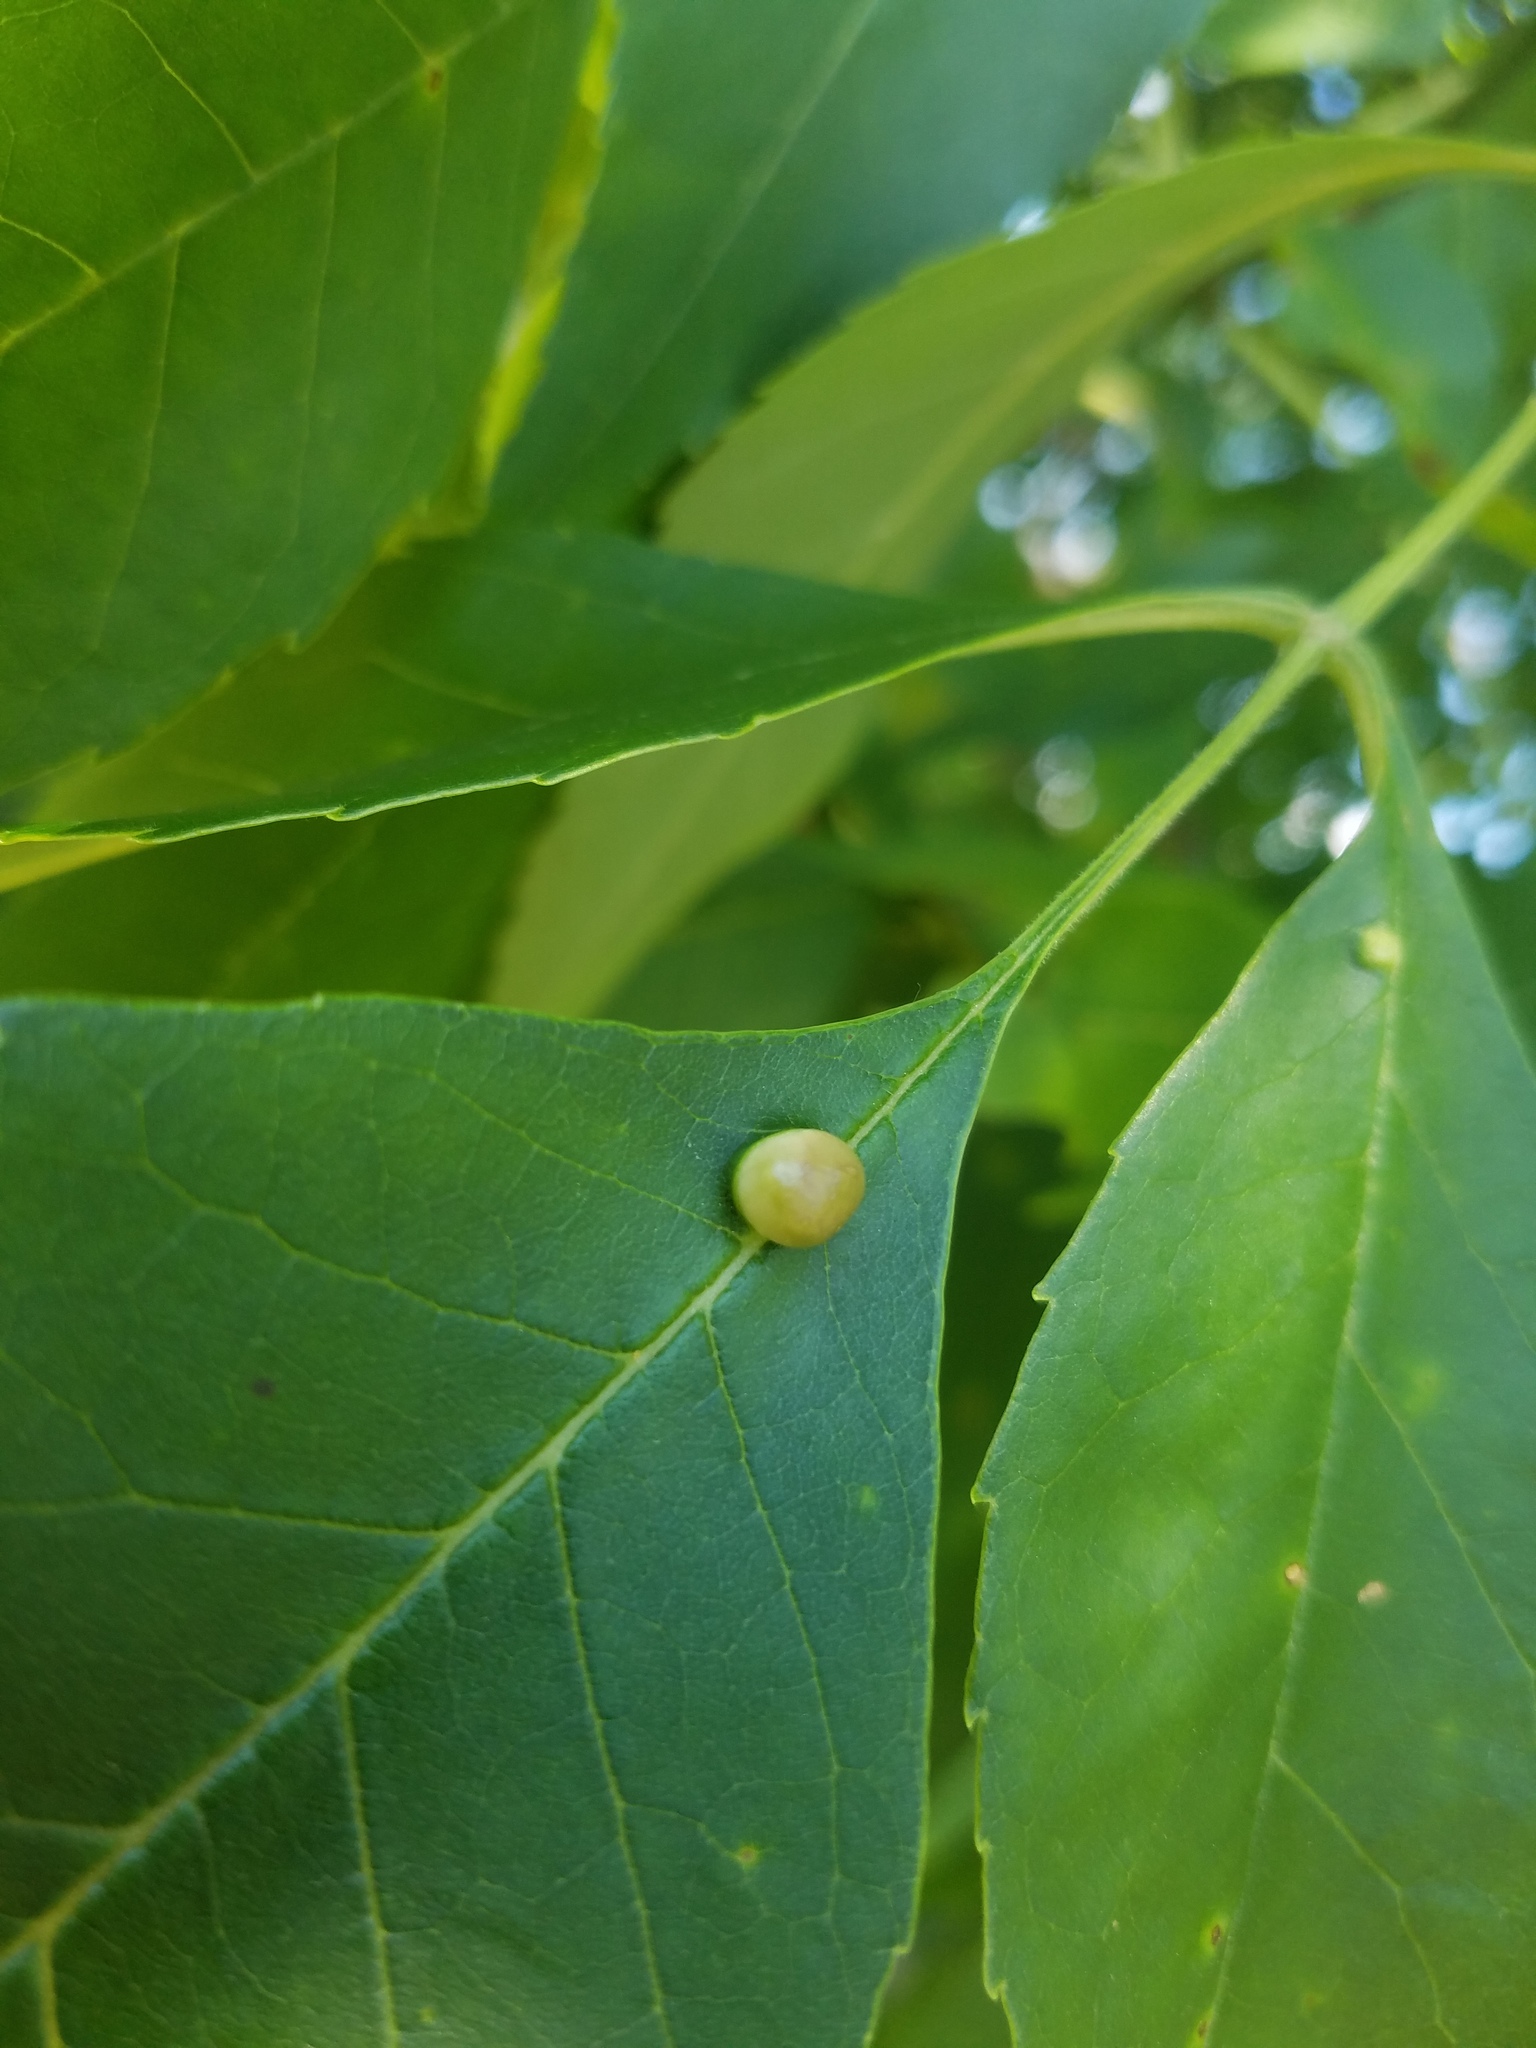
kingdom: Animalia
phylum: Arthropoda
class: Insecta
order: Diptera
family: Cecidomyiidae
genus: Dasineura
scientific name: Dasineura pellex
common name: Ash bullet gall midge
